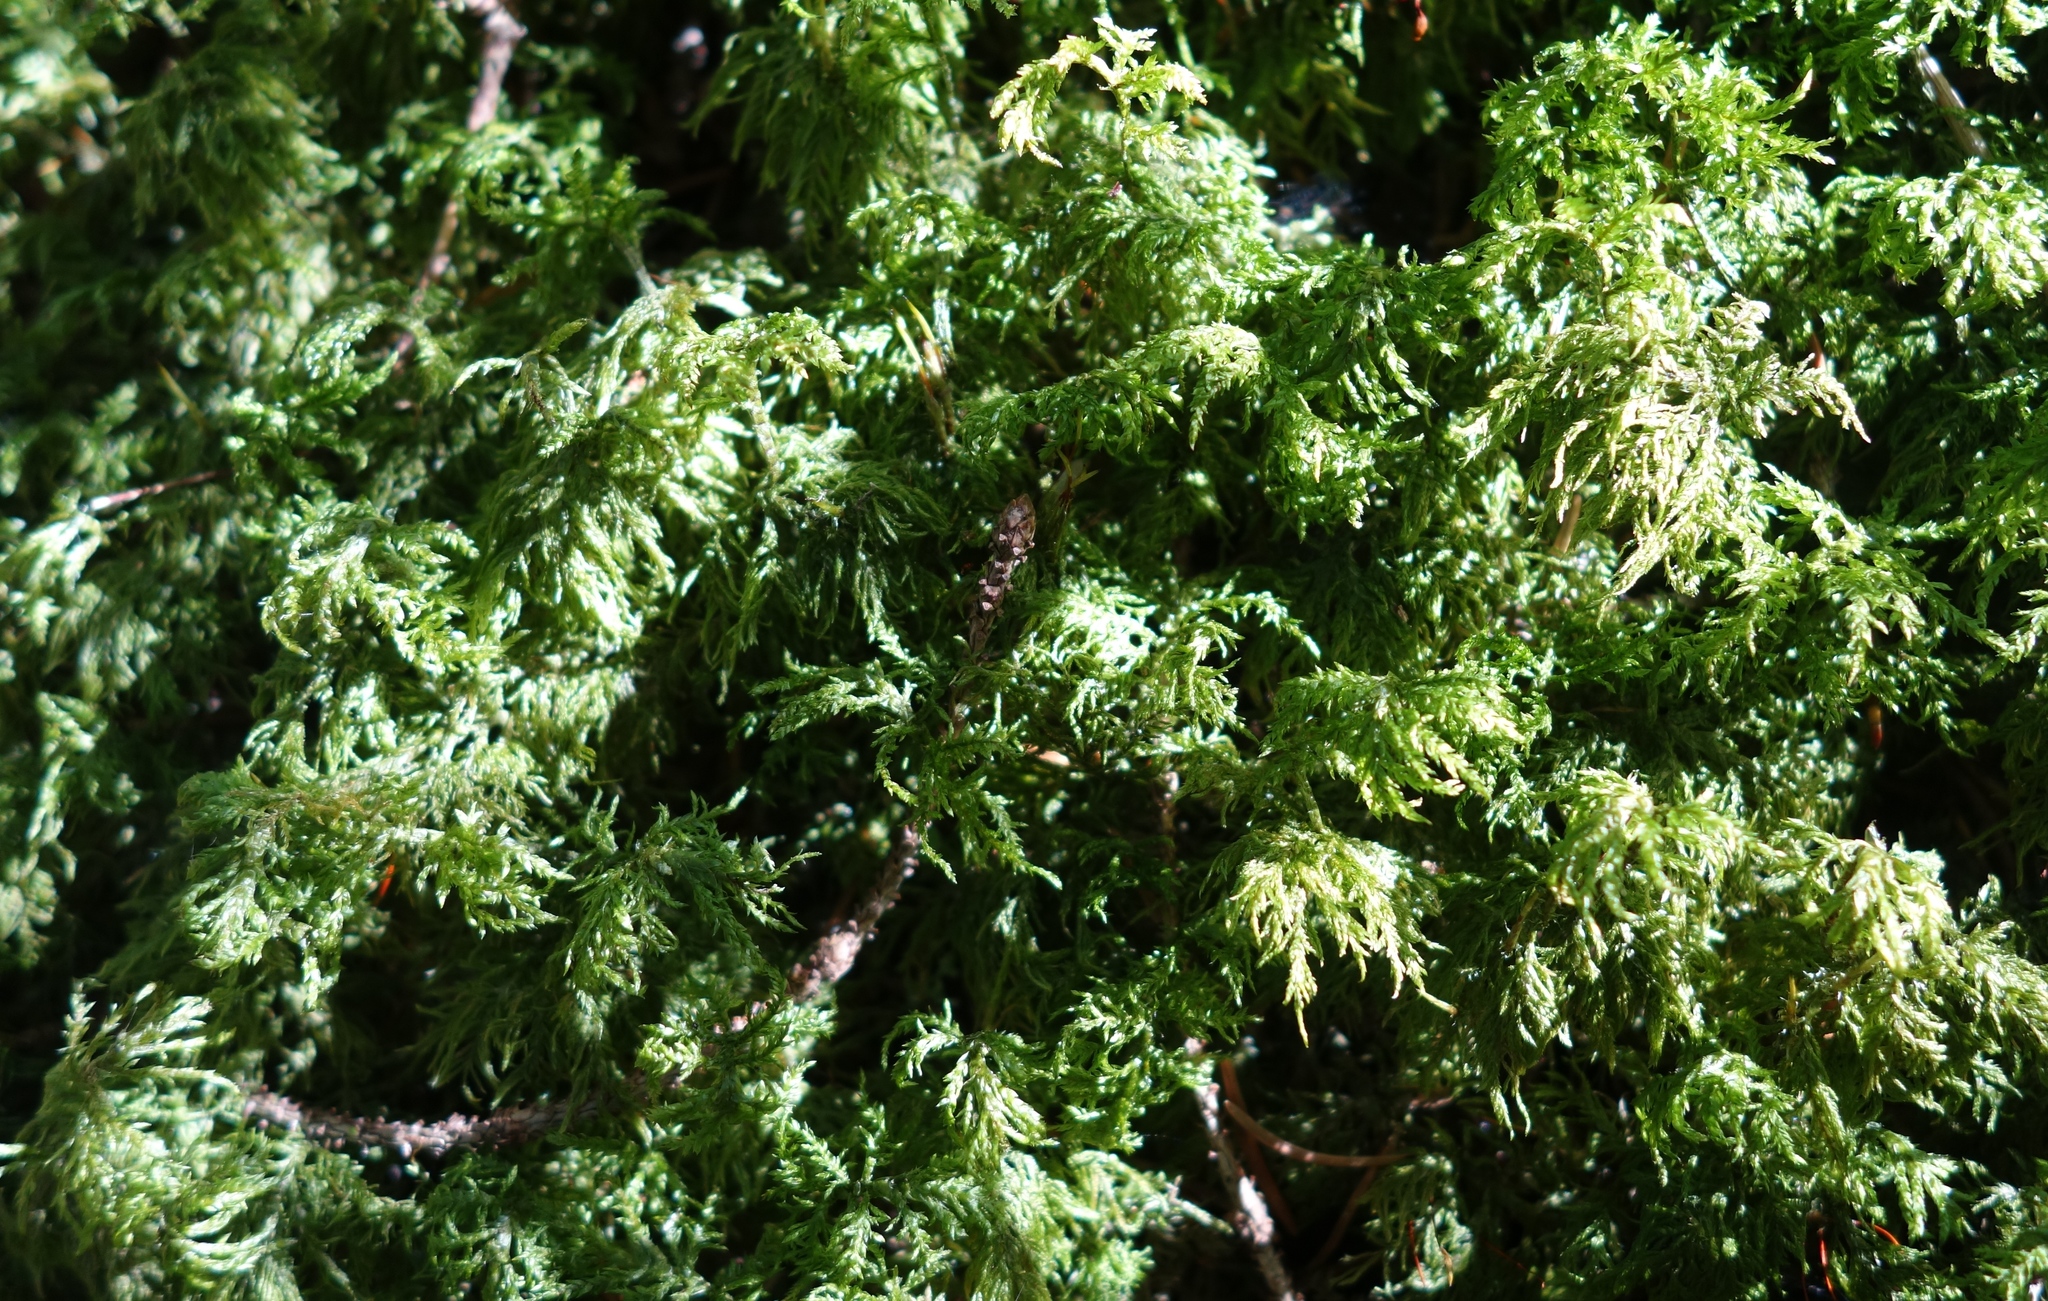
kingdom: Plantae
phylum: Bryophyta
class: Bryopsida
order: Hypnales
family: Hylocomiaceae
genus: Hylocomium
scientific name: Hylocomium splendens
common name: Stairstep moss
